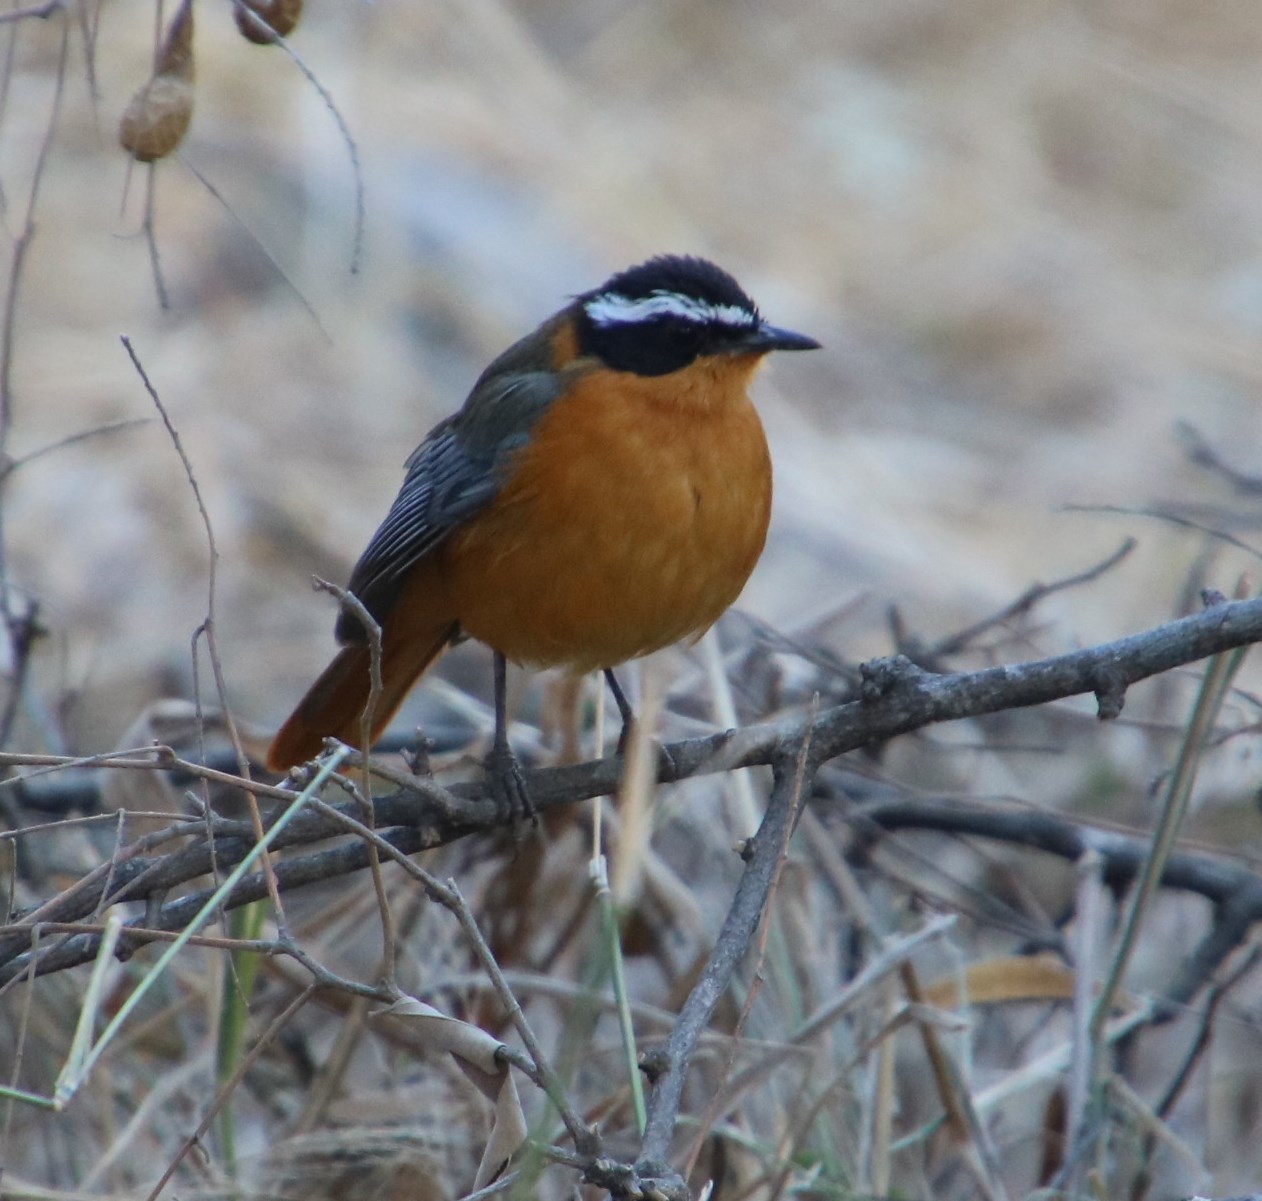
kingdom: Animalia
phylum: Chordata
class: Aves
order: Passeriformes
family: Muscicapidae
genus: Cossypha
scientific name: Cossypha heuglini
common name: White-browed robin-chat
